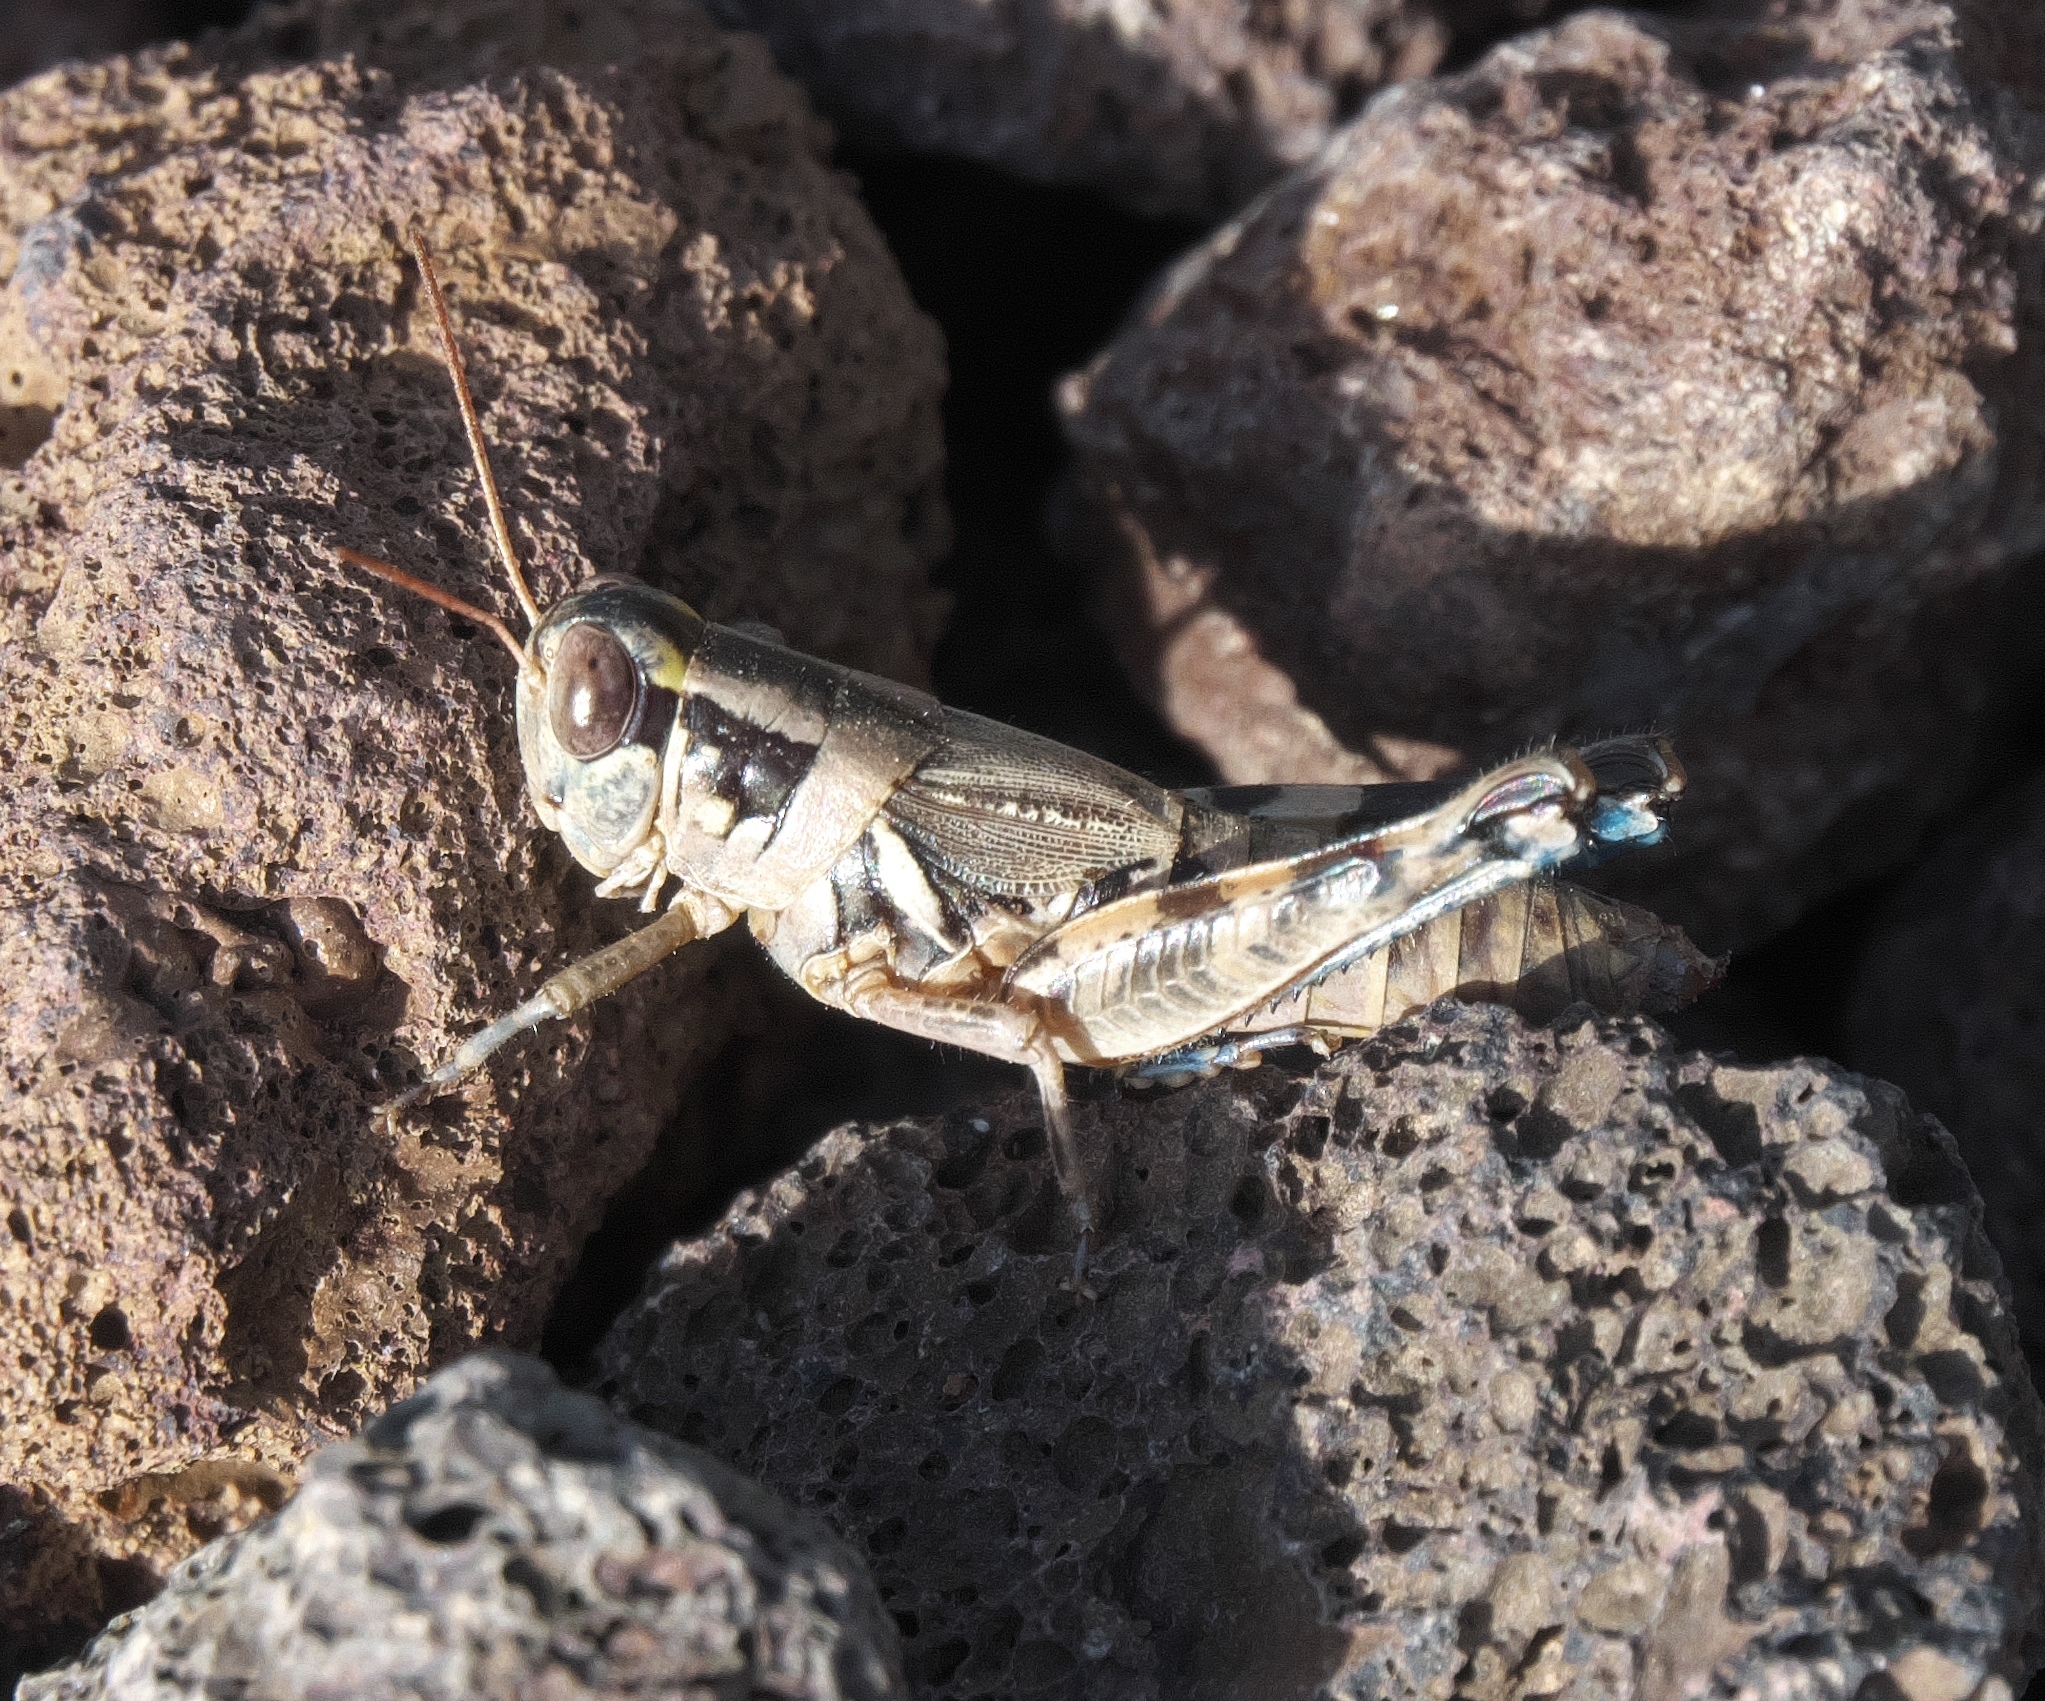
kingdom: Animalia
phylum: Arthropoda
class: Insecta
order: Orthoptera
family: Acrididae
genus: Melanoplus
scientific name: Melanoplus lakinus
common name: Lakin grasshopper
